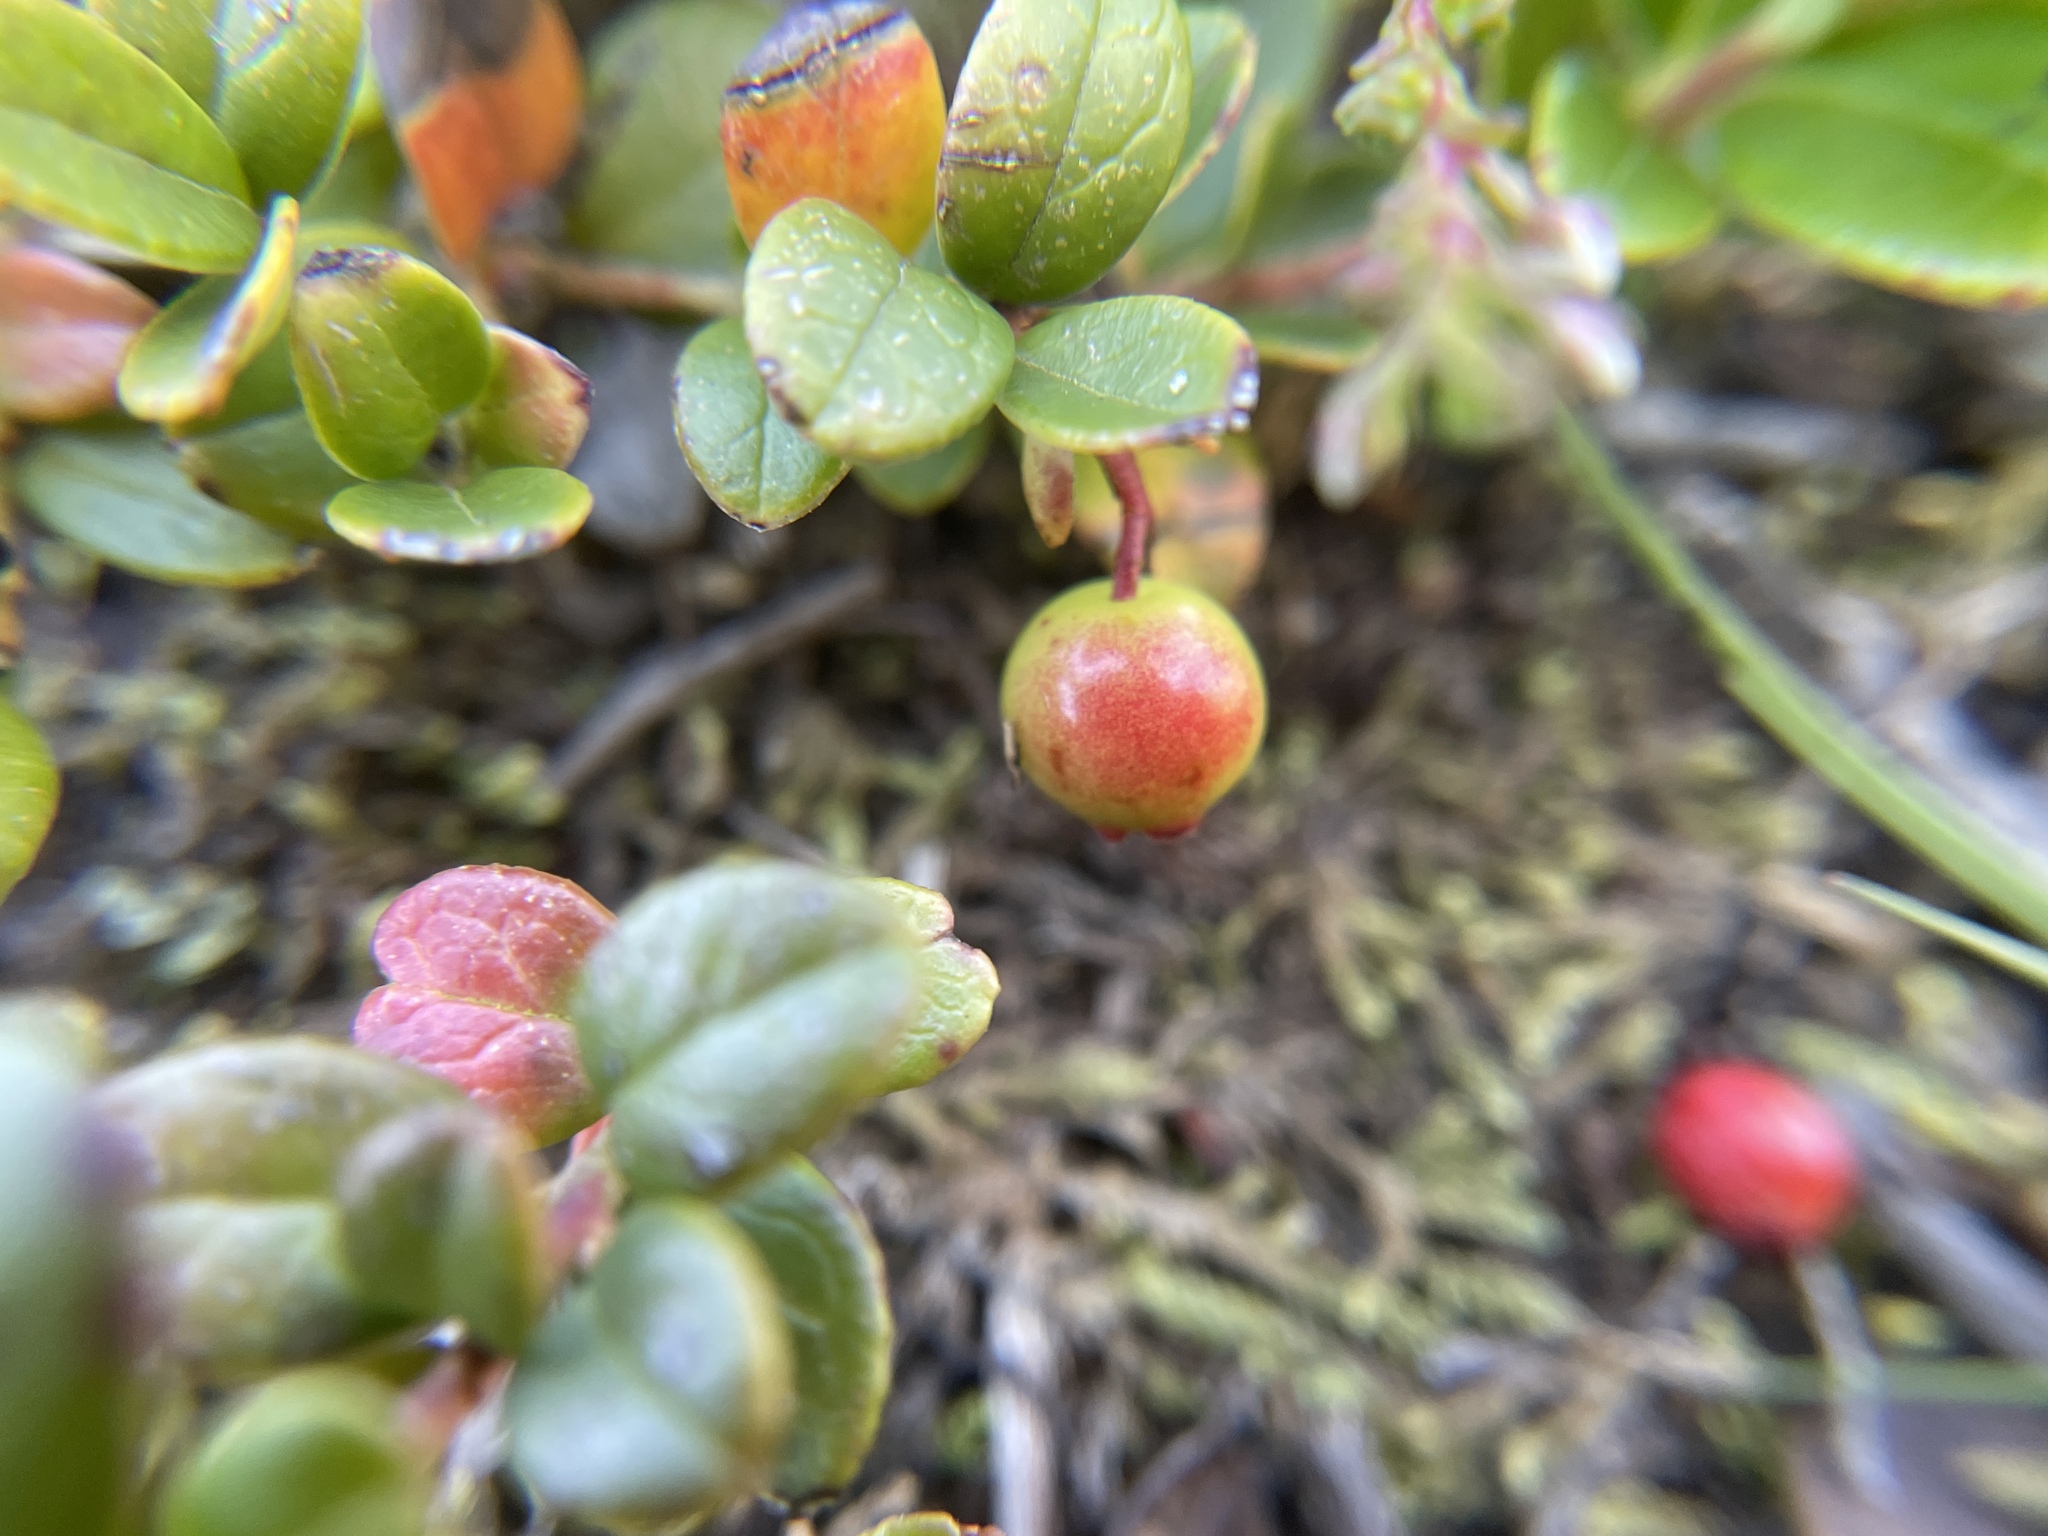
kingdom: Plantae
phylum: Tracheophyta
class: Magnoliopsida
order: Ericales
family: Ericaceae
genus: Vaccinium
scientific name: Vaccinium vitis-idaea
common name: Cowberry
